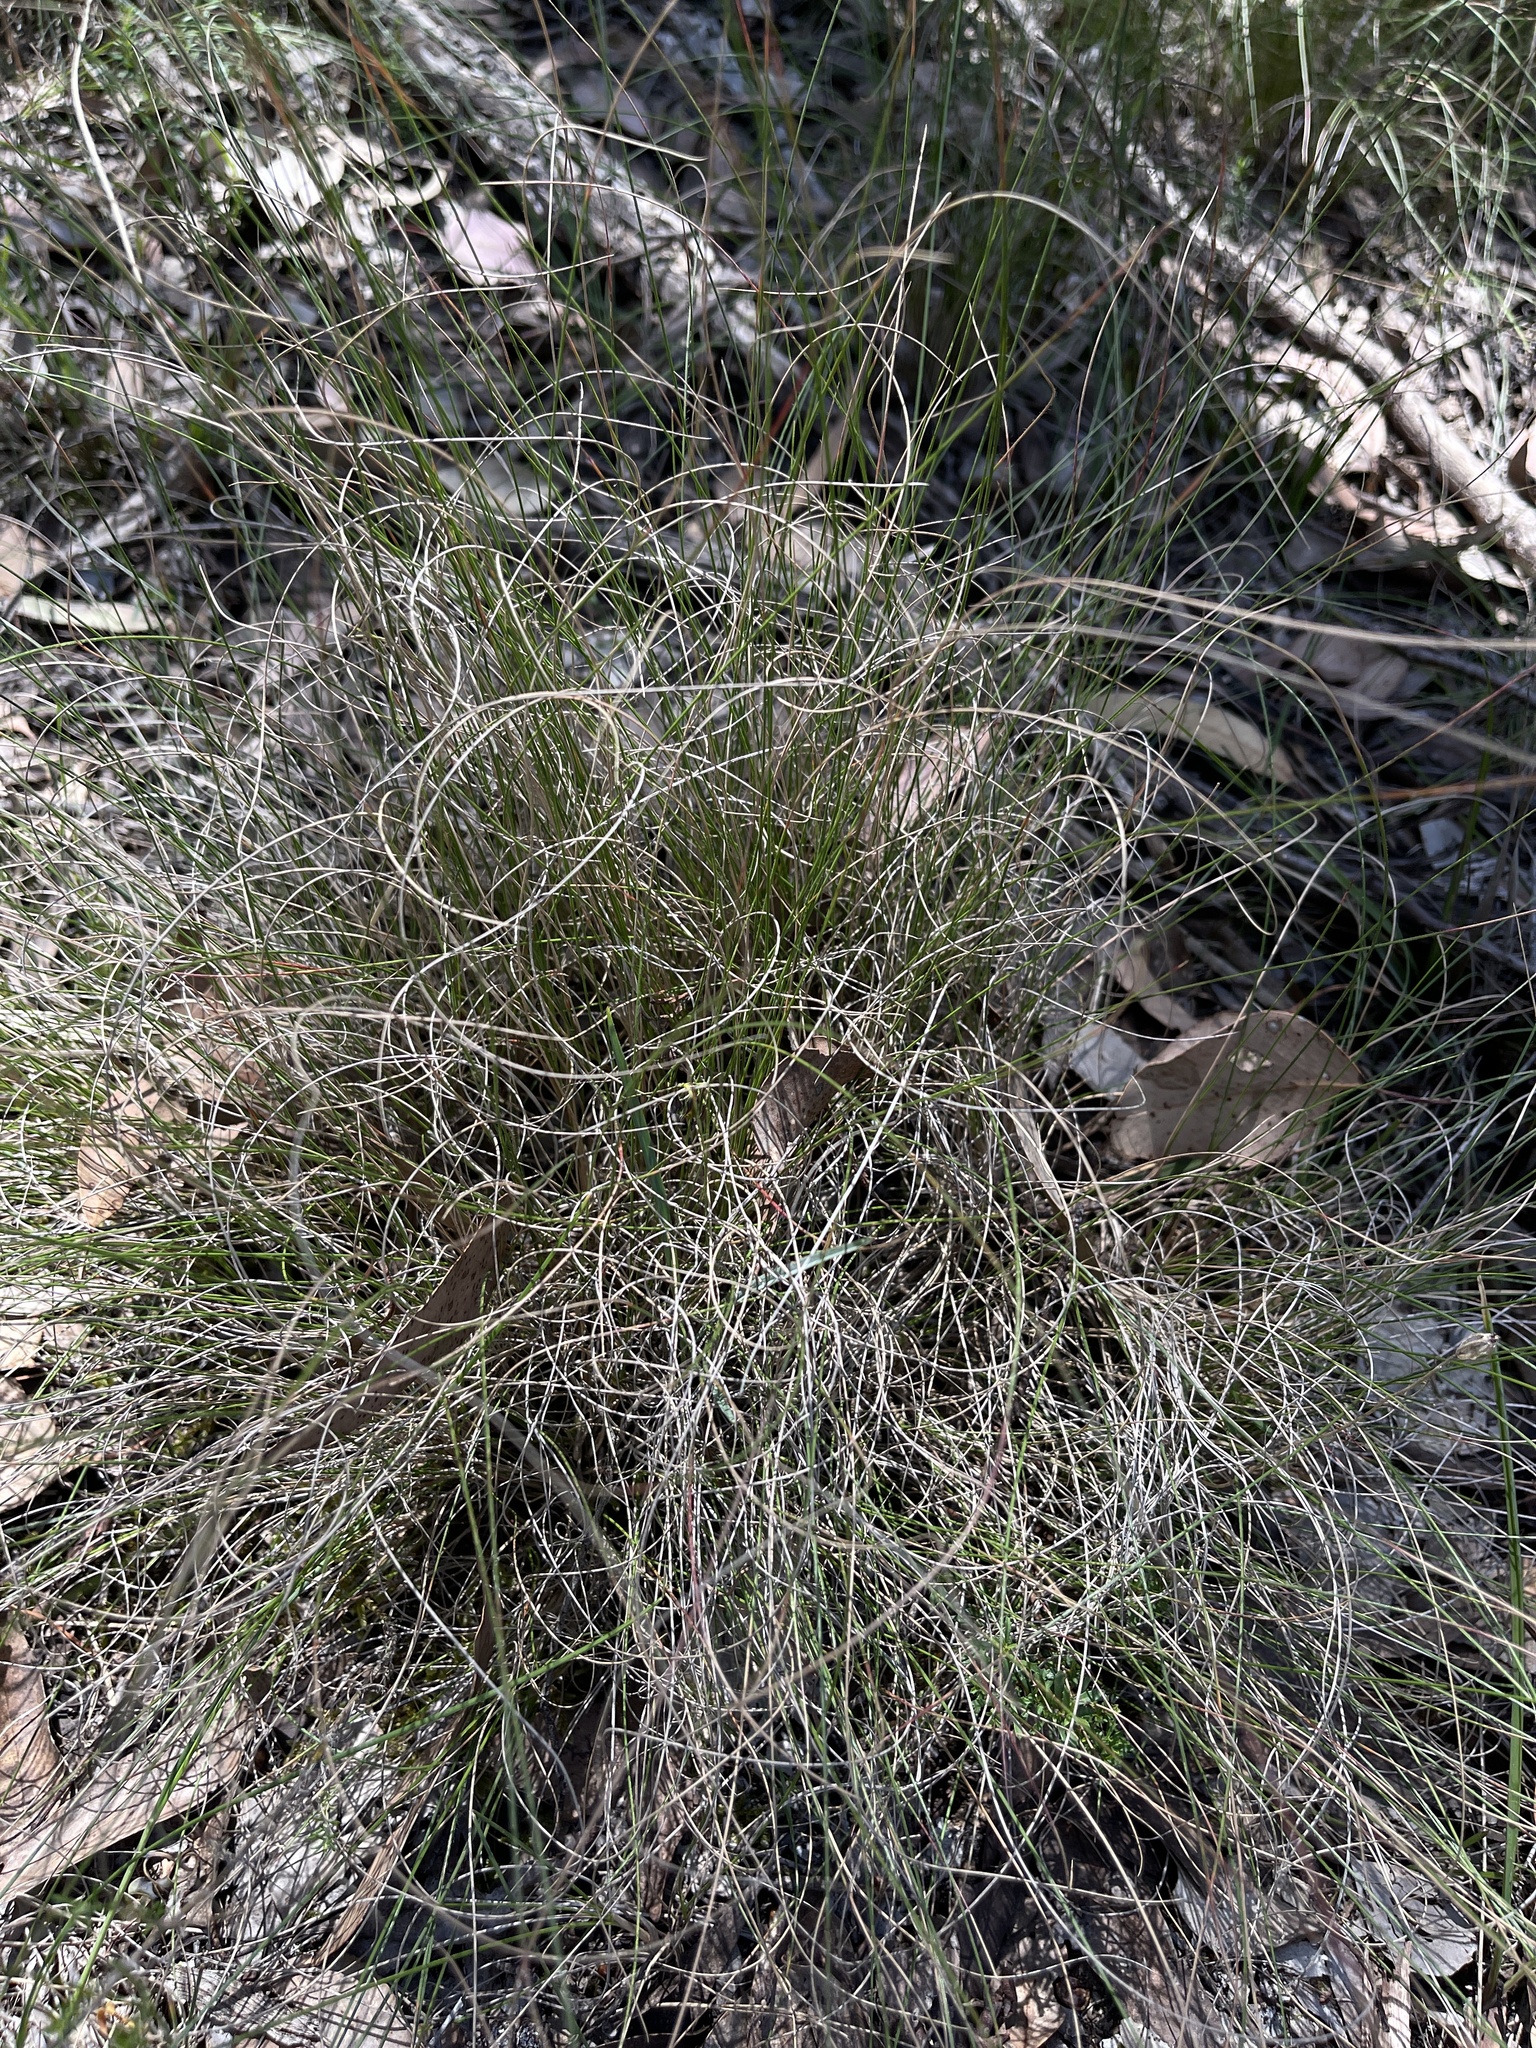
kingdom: Plantae
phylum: Tracheophyta
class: Liliopsida
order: Poales
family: Poaceae
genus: Rytidosperma
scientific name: Rytidosperma pallidum
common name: Red-anther wallaby grass
